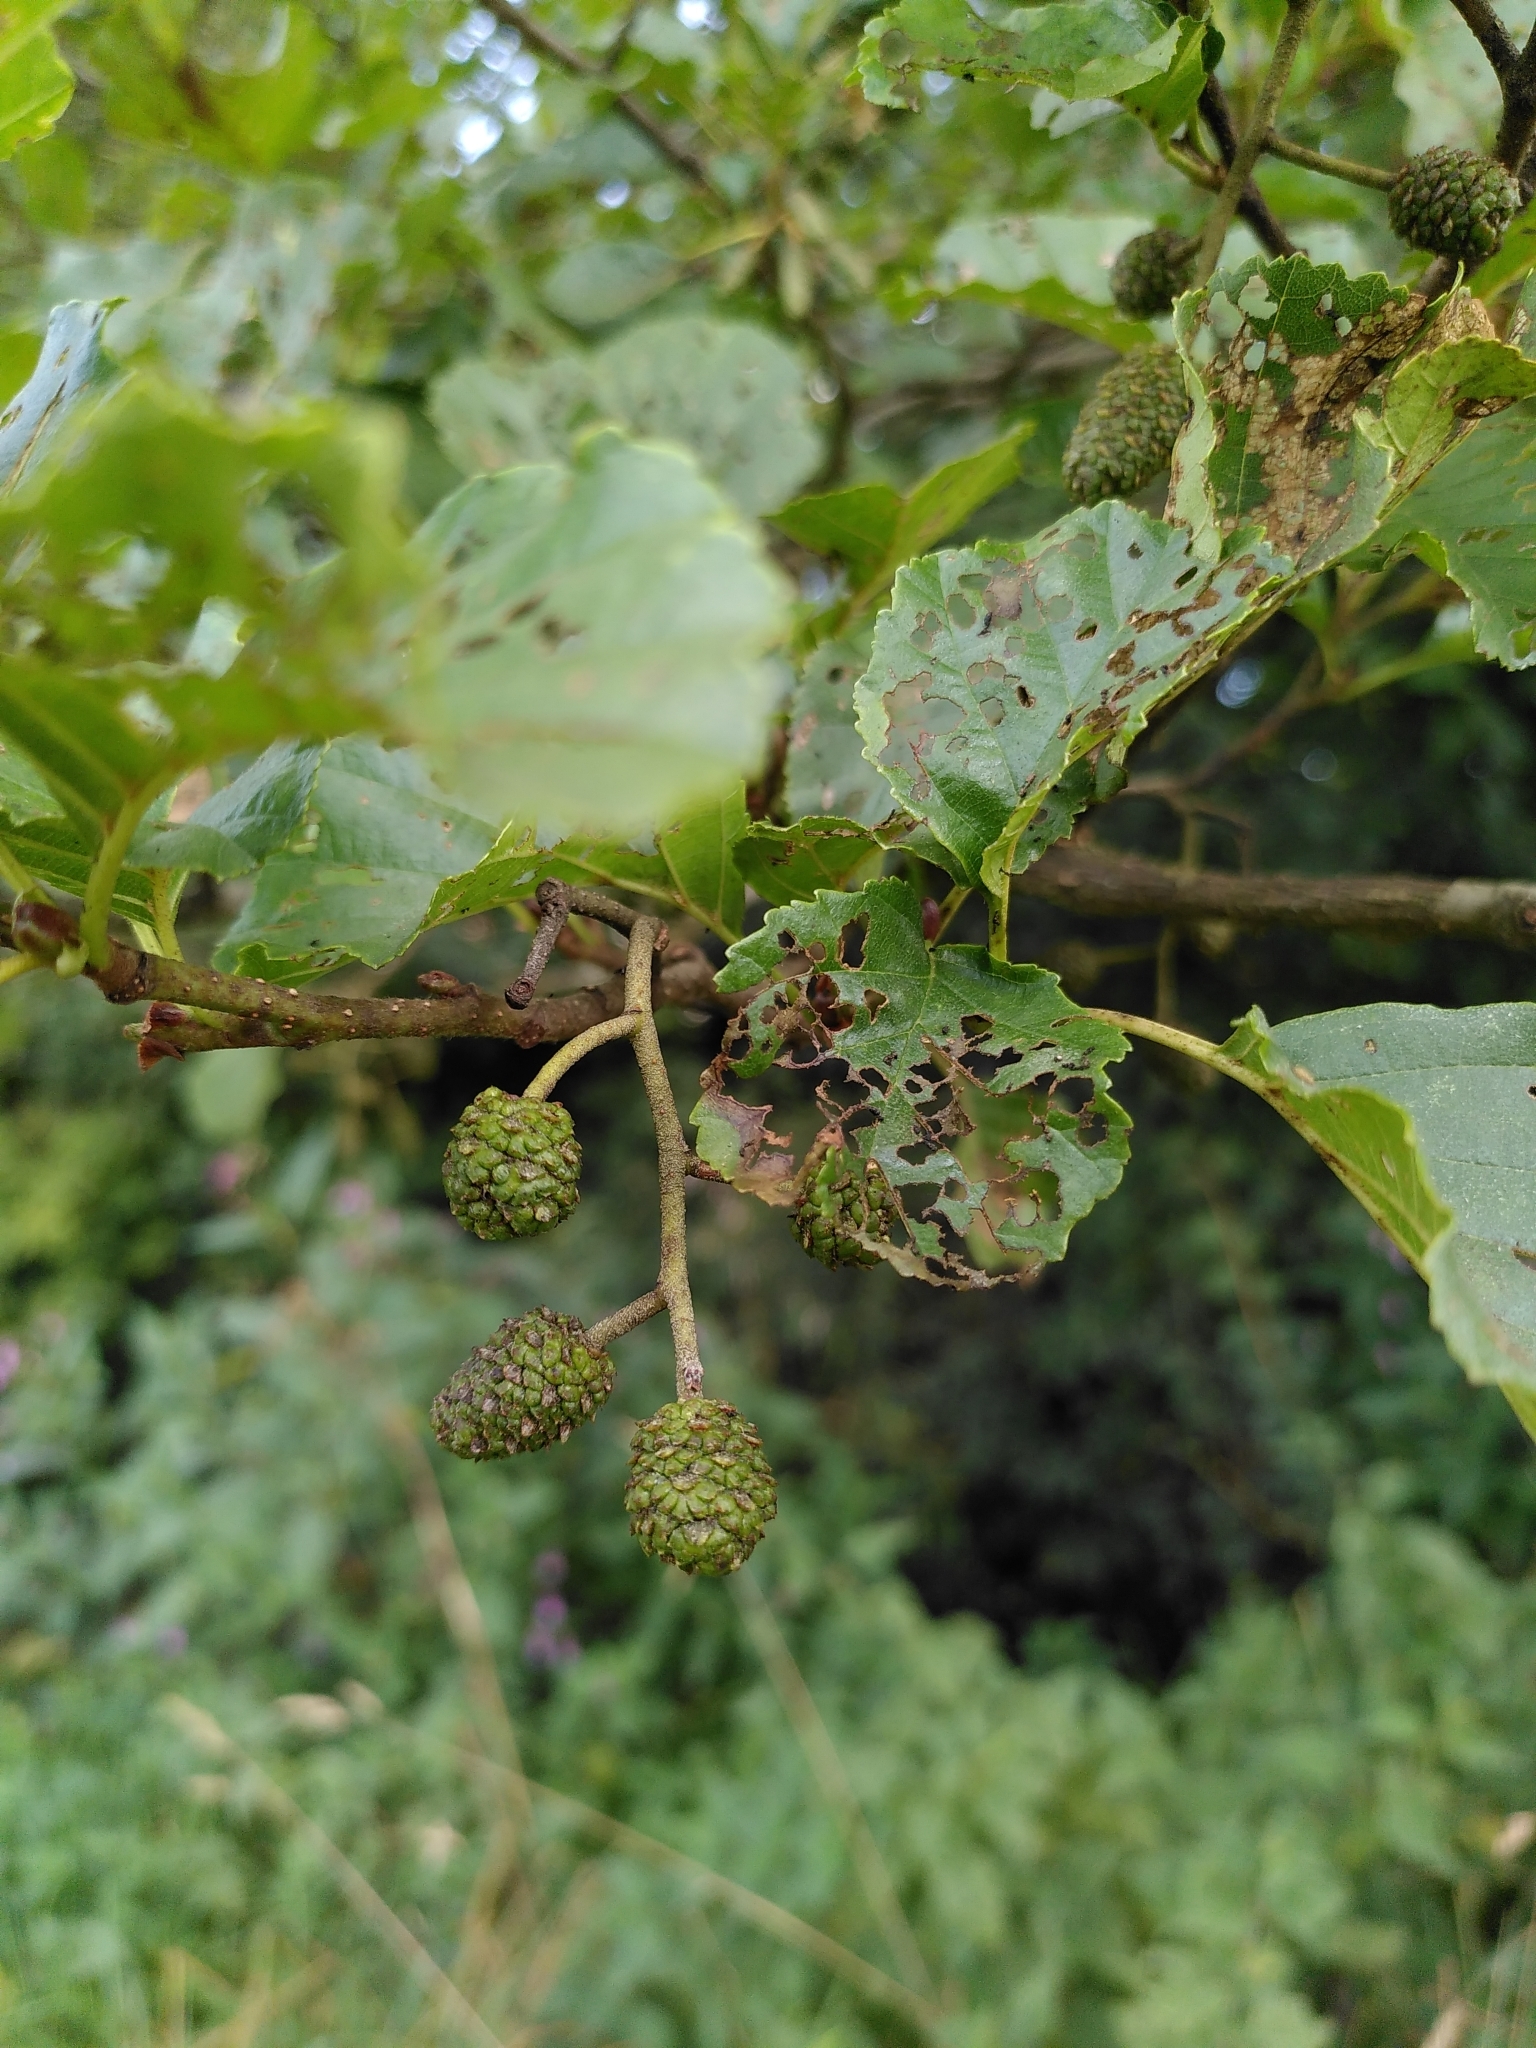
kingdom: Plantae
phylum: Tracheophyta
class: Magnoliopsida
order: Fagales
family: Betulaceae
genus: Alnus
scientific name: Alnus glutinosa
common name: Black alder
